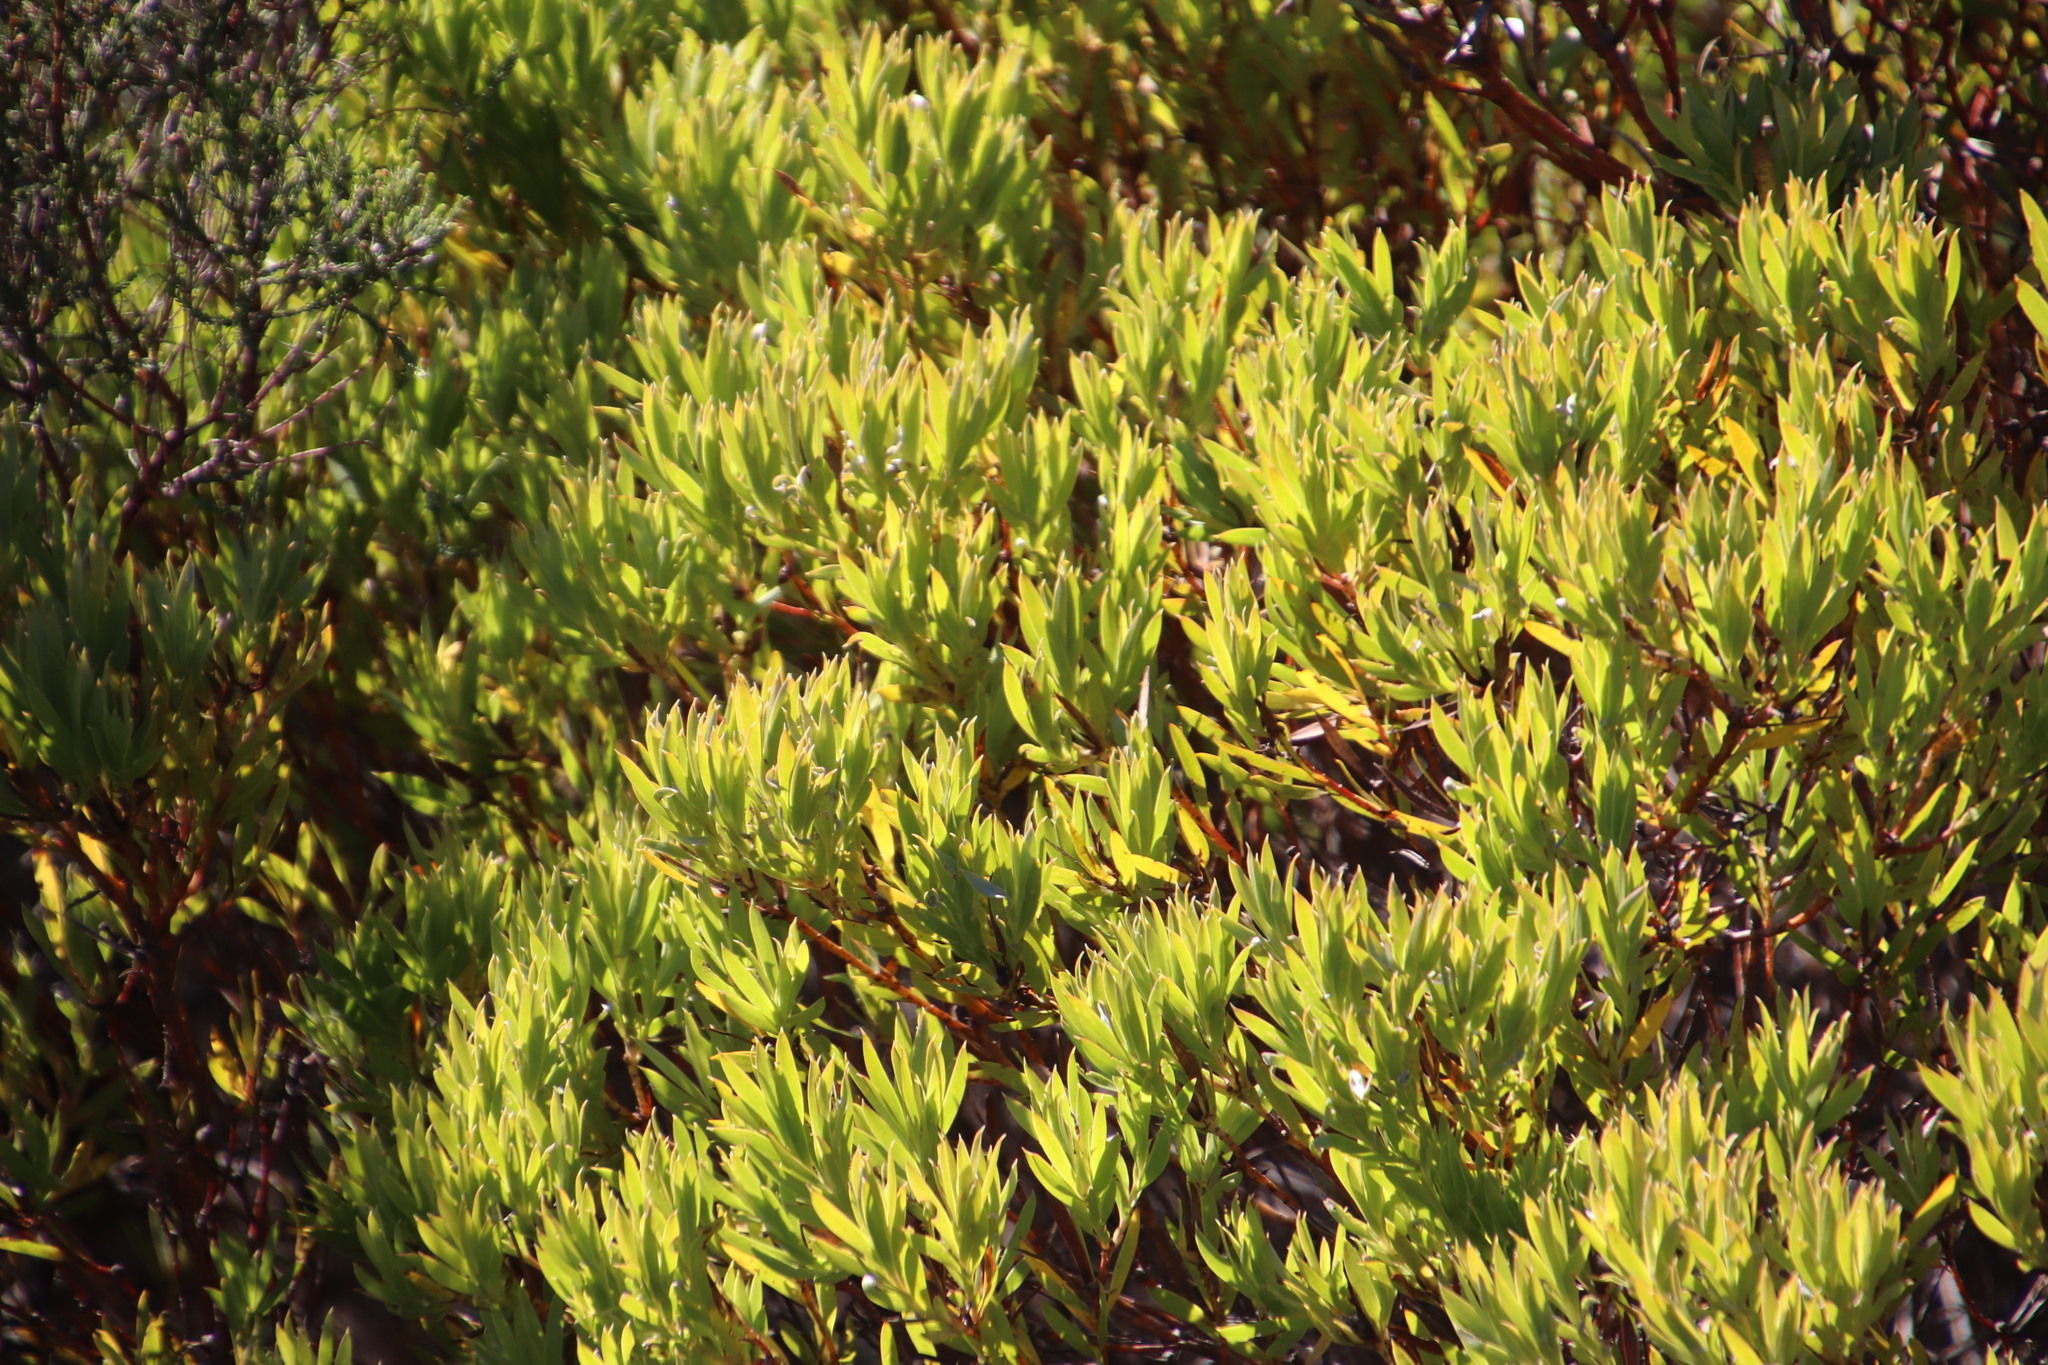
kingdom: Plantae
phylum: Tracheophyta
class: Magnoliopsida
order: Proteales
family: Proteaceae
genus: Leucadendron
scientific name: Leucadendron laureolum
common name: Golden sunshinebush
